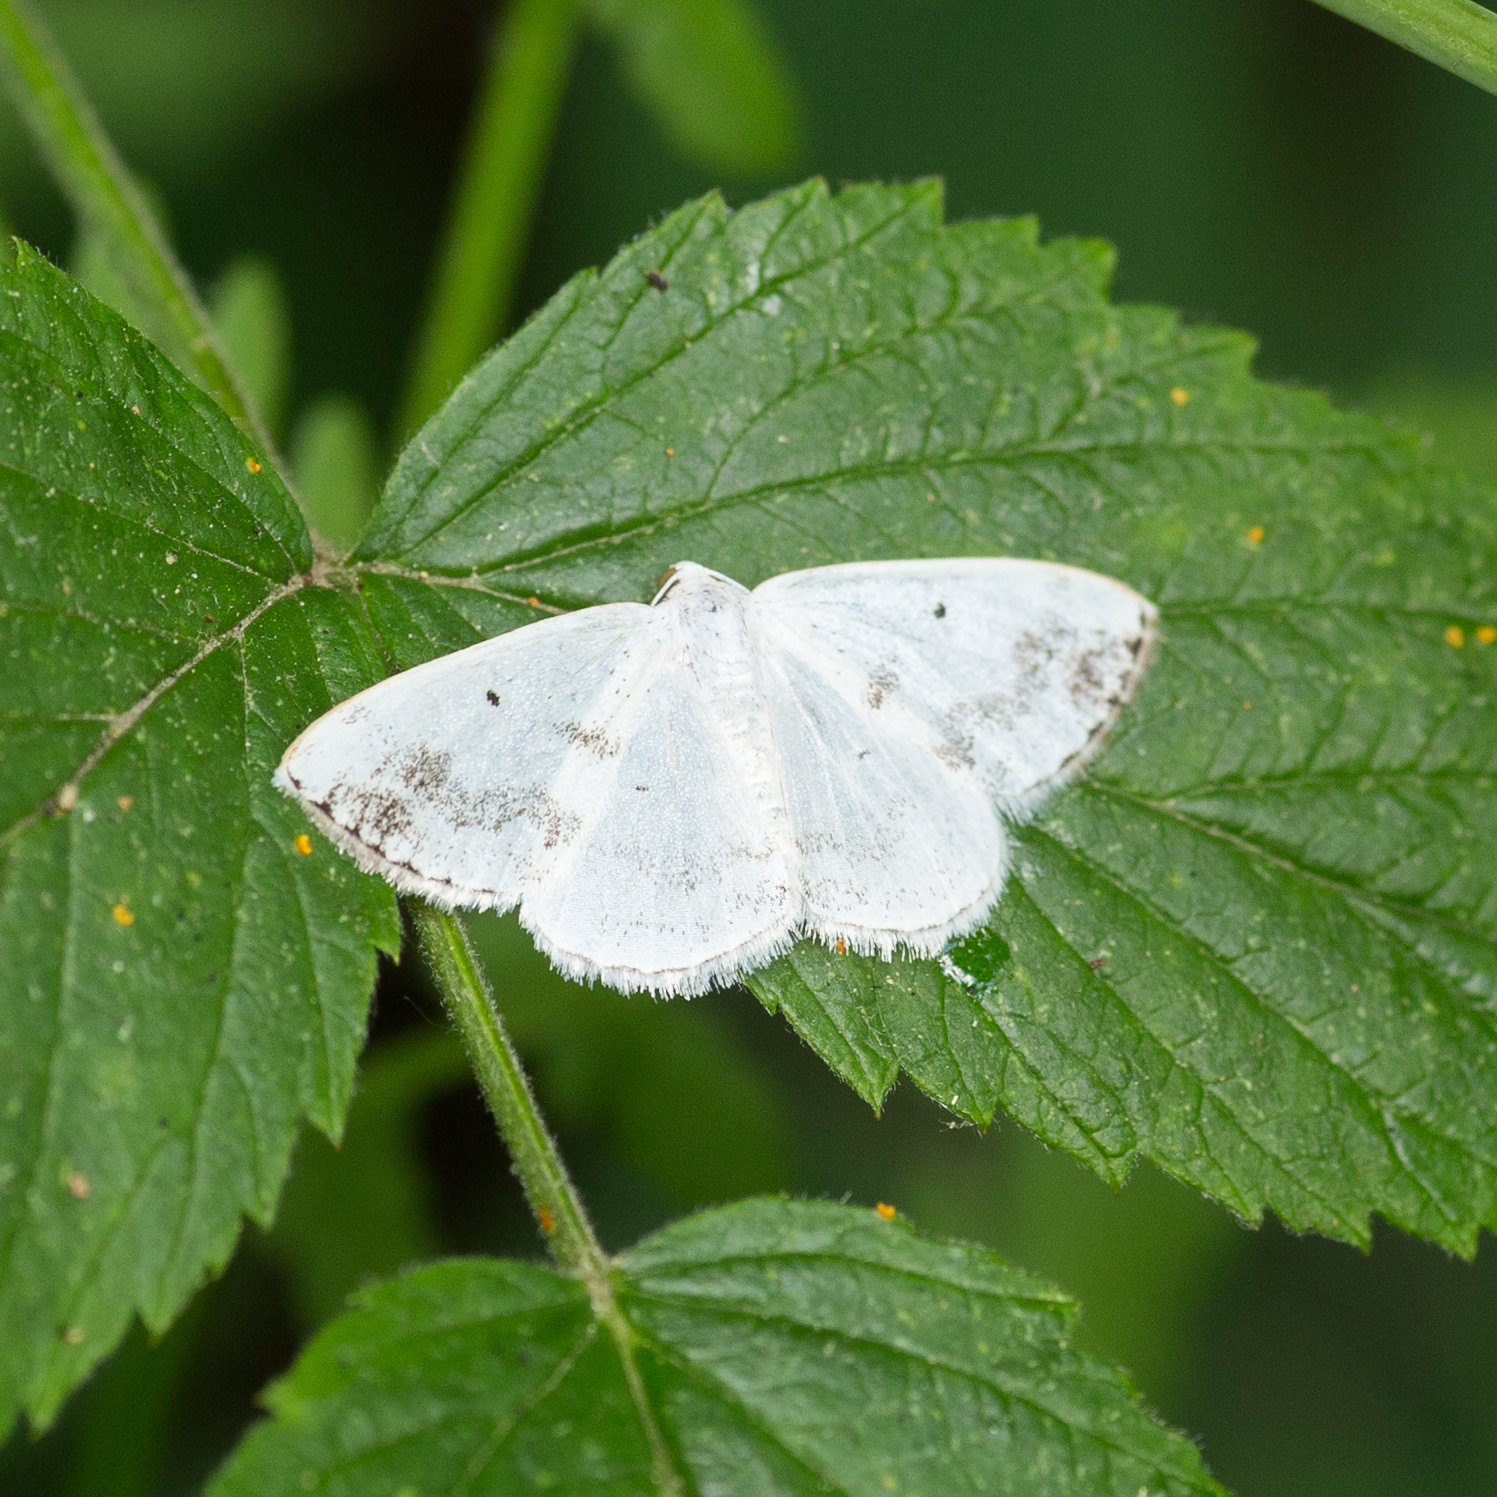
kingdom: Animalia
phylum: Arthropoda
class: Insecta
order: Lepidoptera
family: Geometridae
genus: Lomographa
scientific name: Lomographa temerata
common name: Clouded silver
